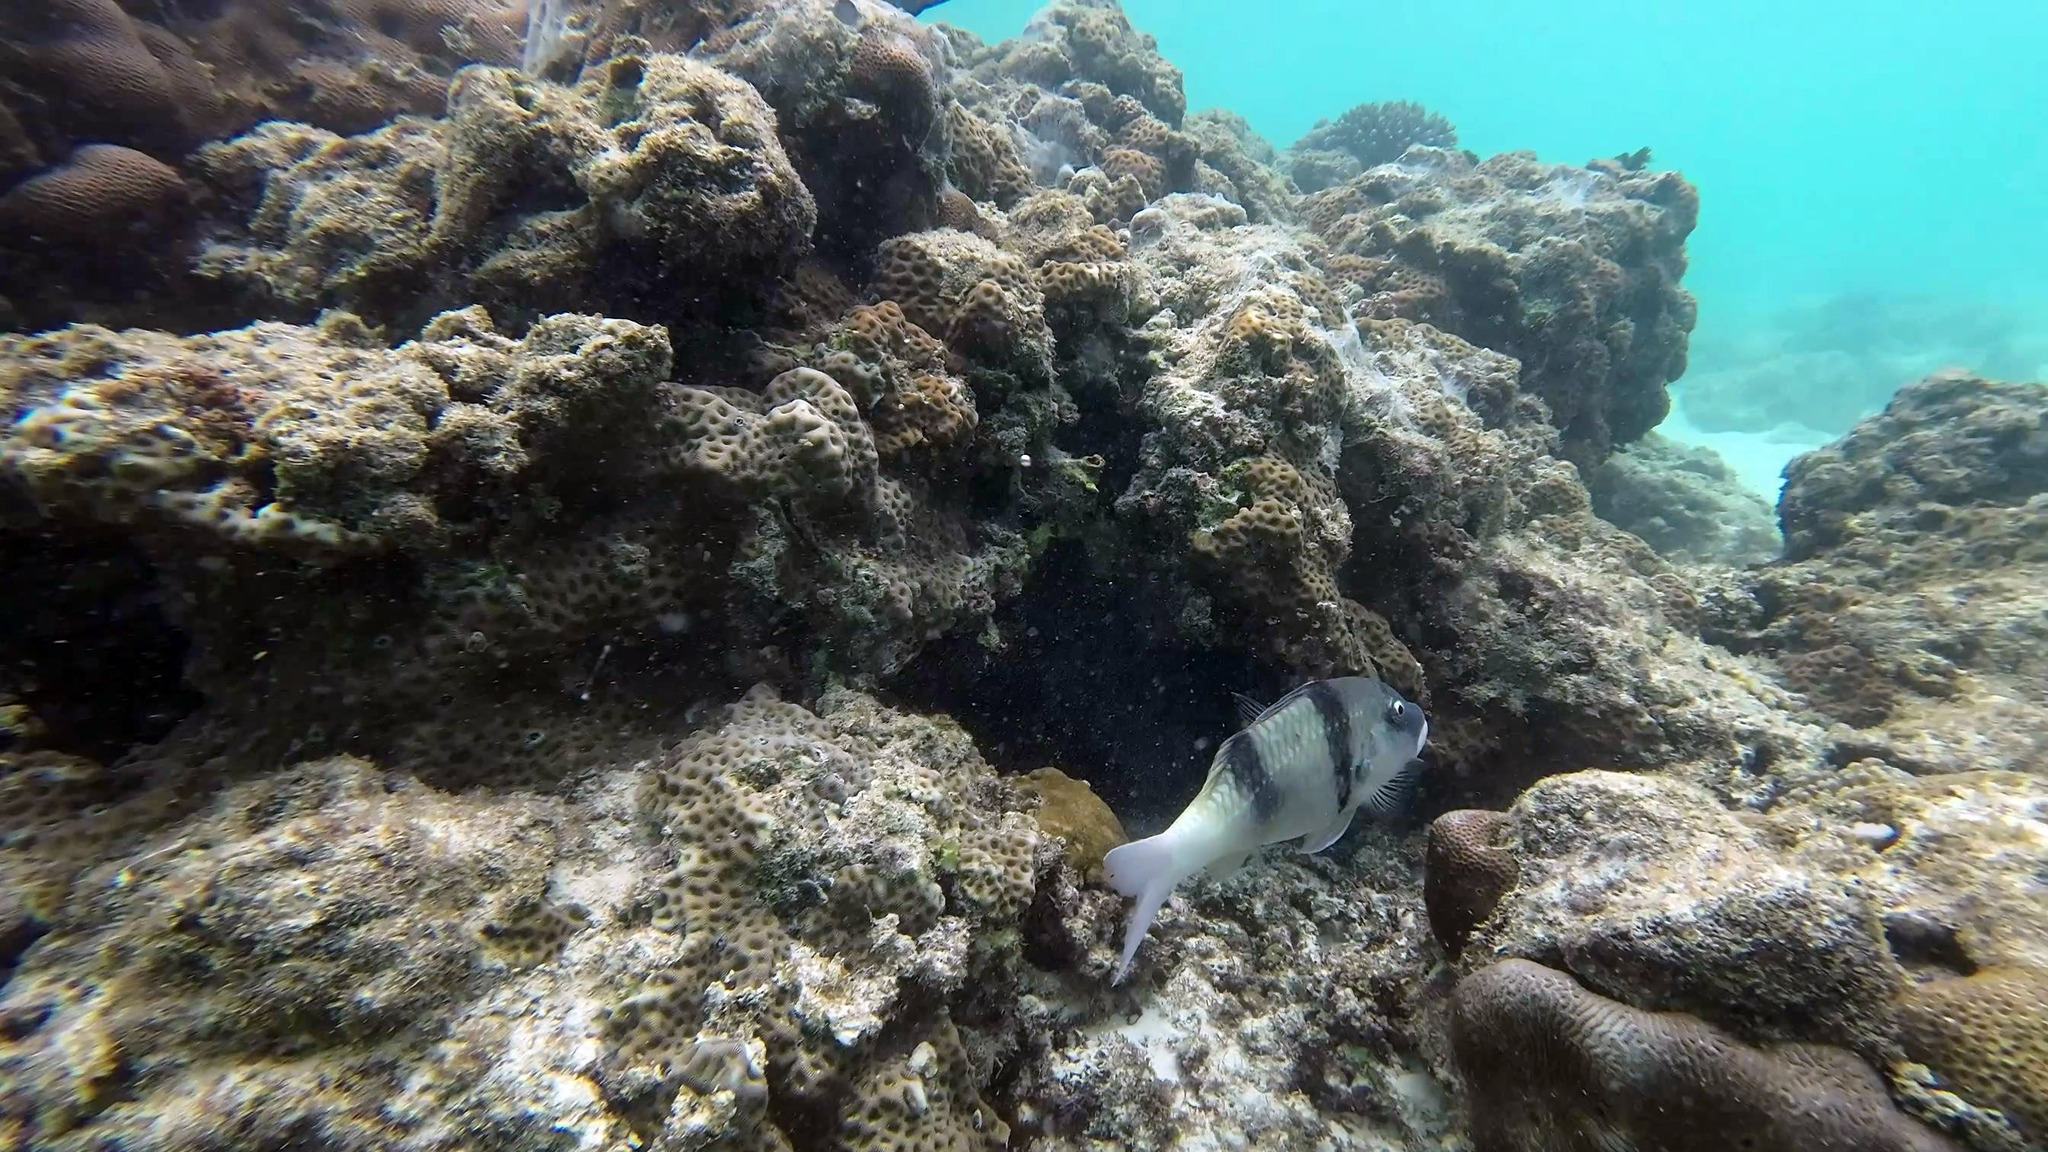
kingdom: Animalia
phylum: Chordata
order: Perciformes
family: Mullidae
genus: Parupeneus
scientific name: Parupeneus trifasciatus
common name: Doublebar goatfish
